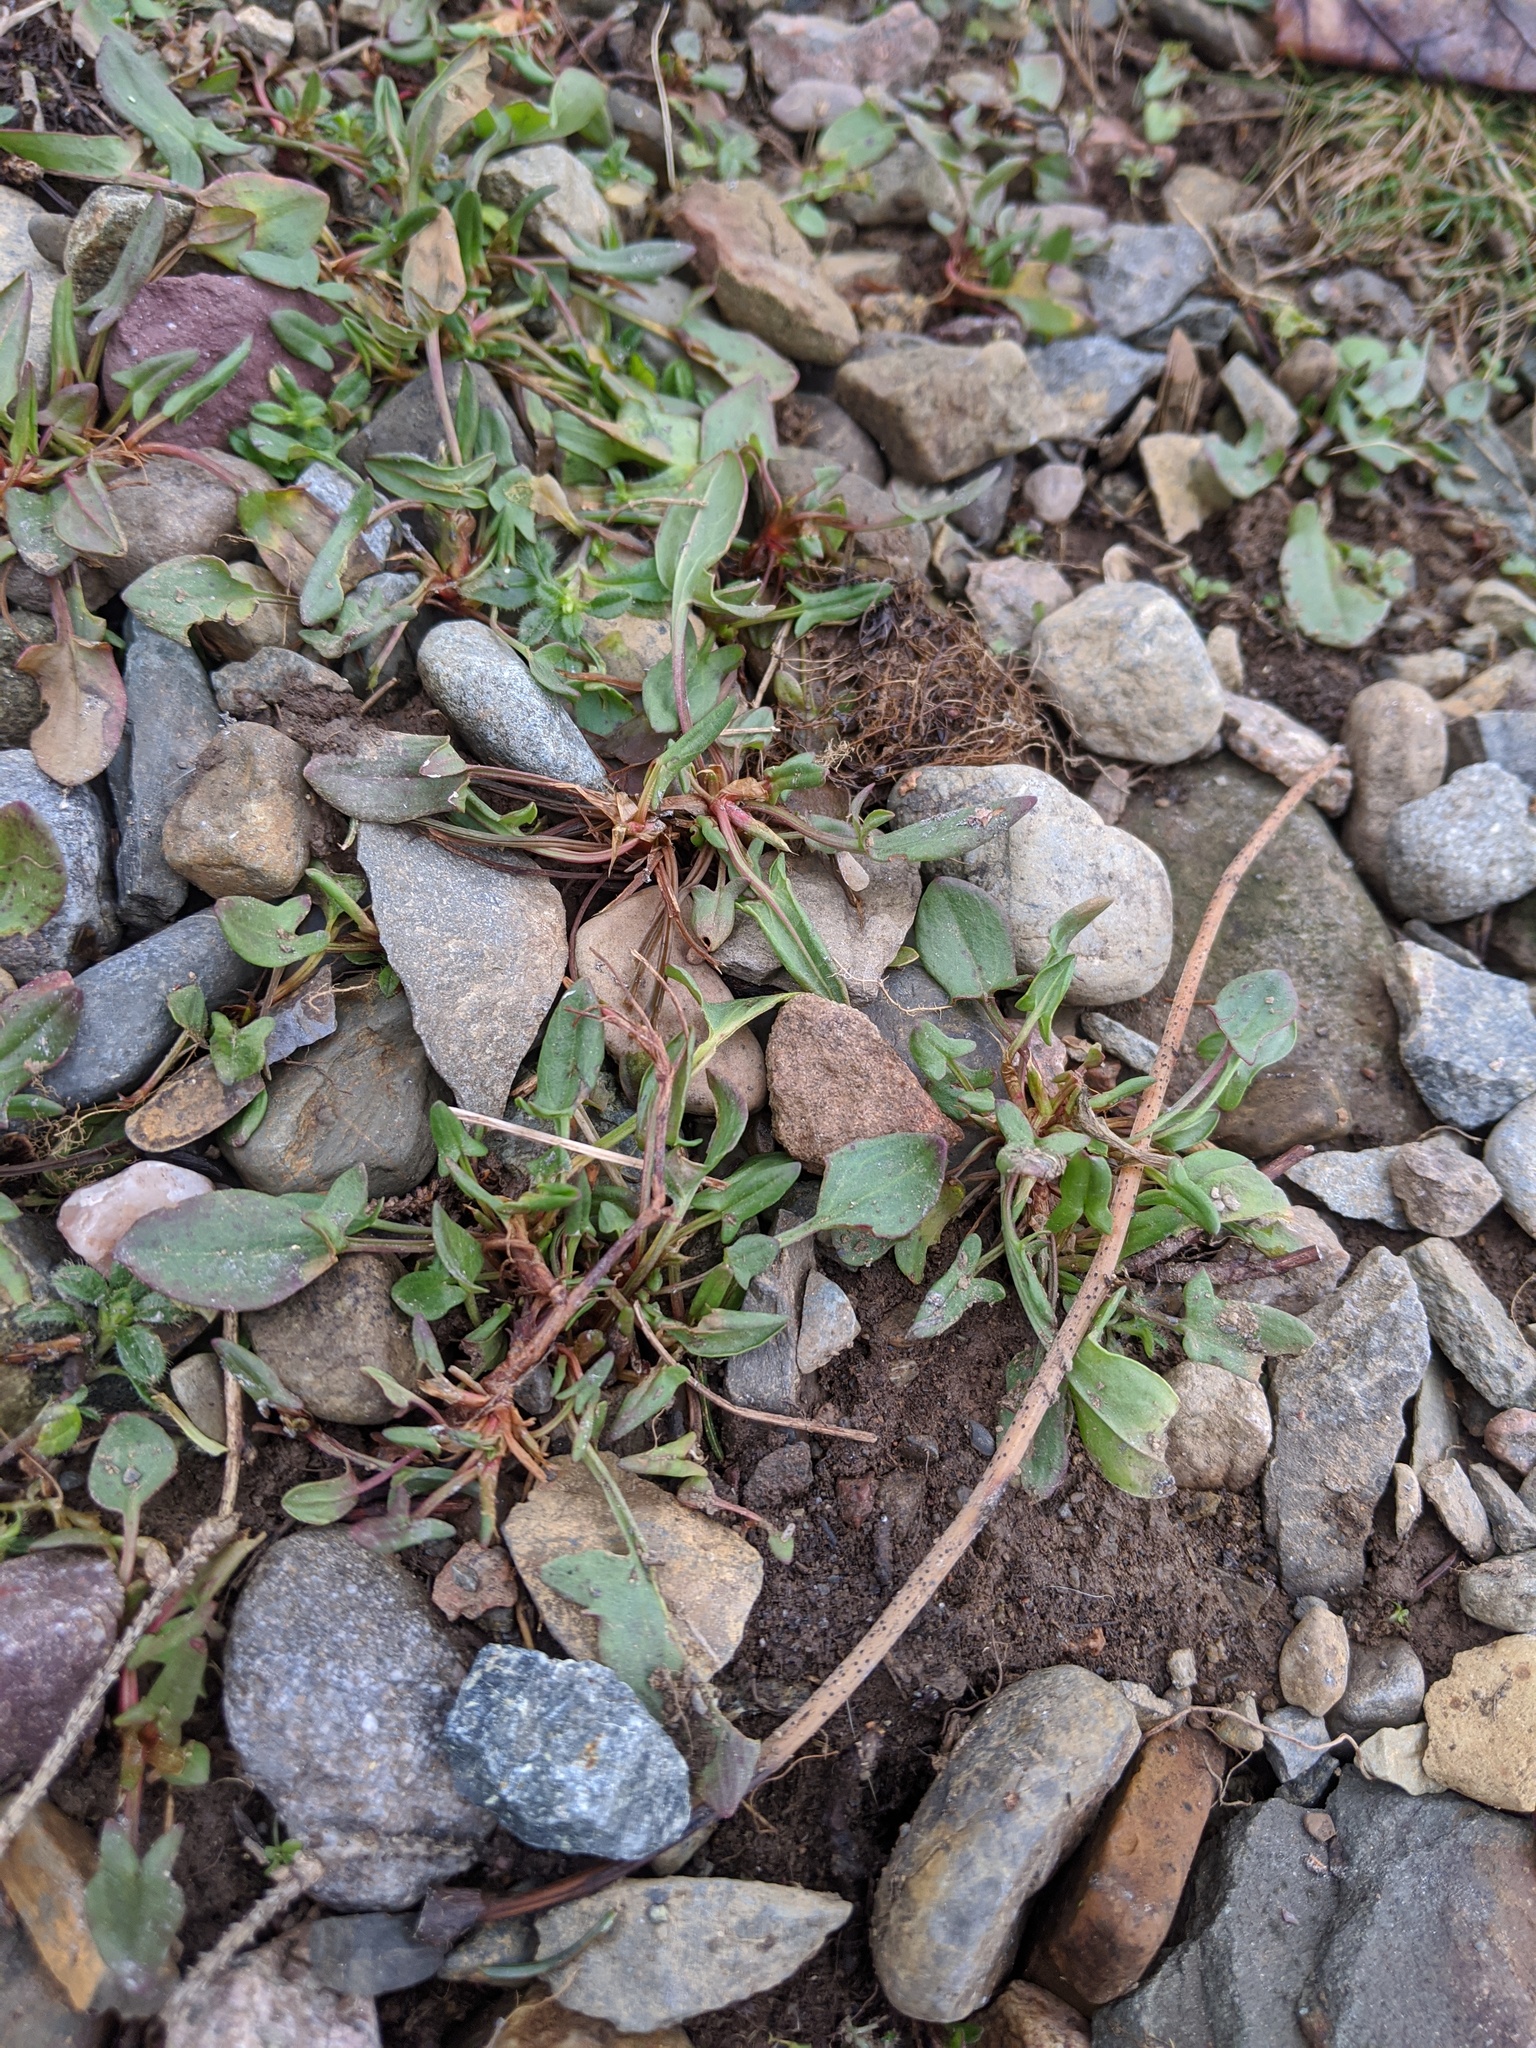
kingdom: Plantae
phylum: Tracheophyta
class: Magnoliopsida
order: Caryophyllales
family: Polygonaceae
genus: Rumex
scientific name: Rumex acetosella
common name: Common sheep sorrel
